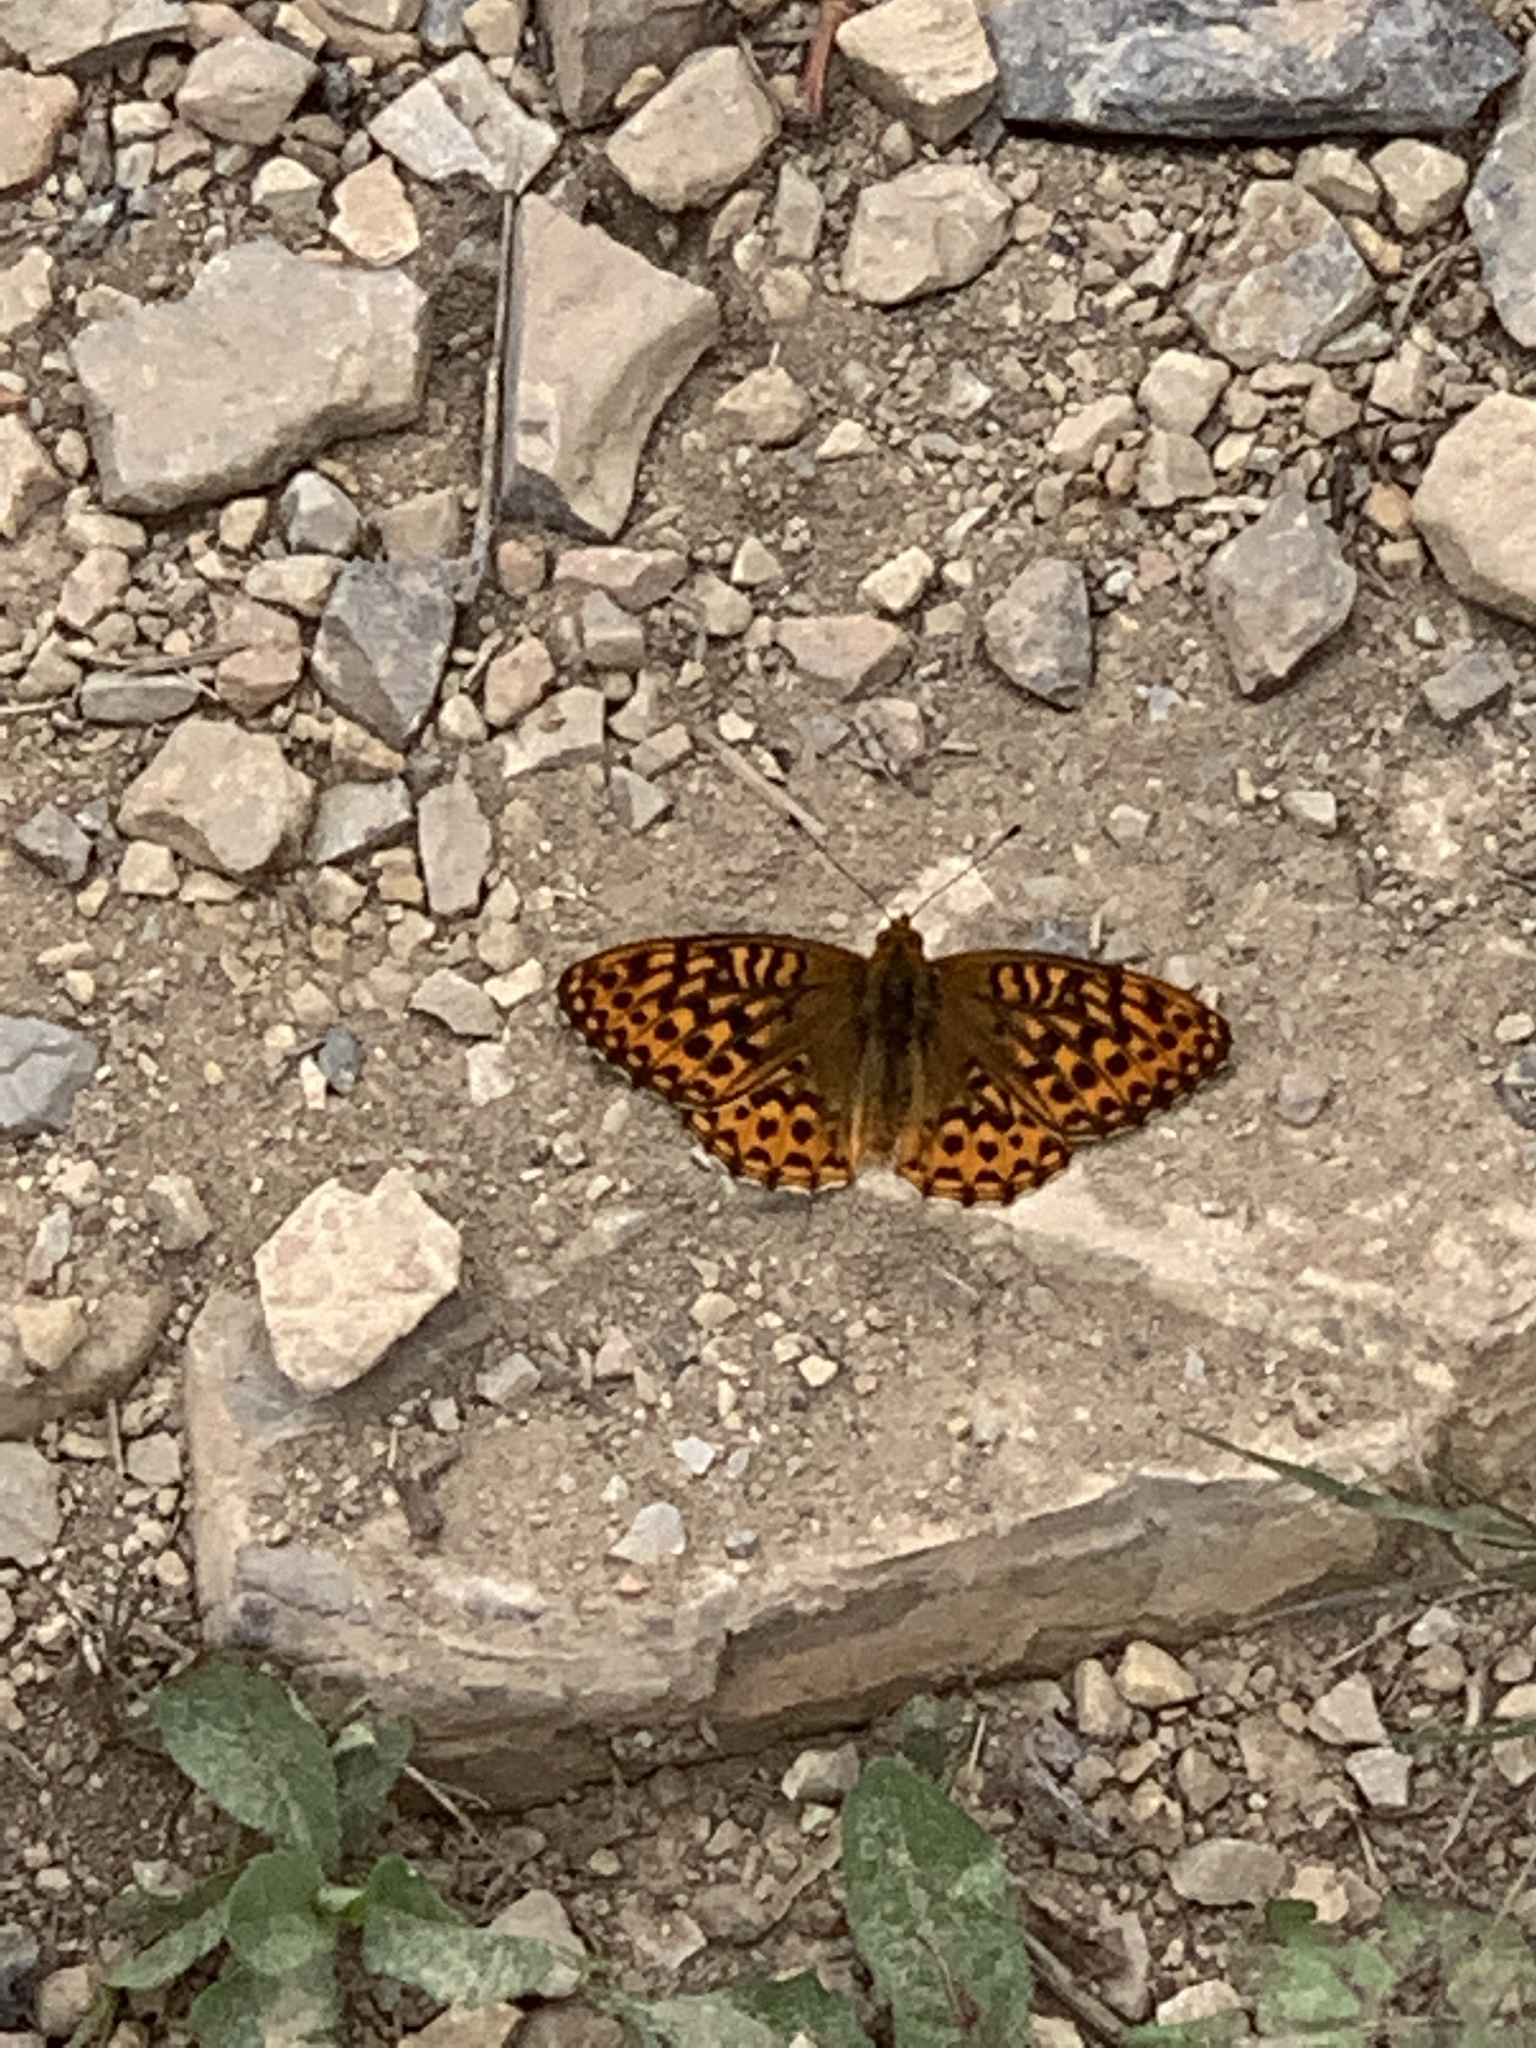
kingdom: Animalia
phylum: Arthropoda
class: Insecta
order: Lepidoptera
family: Nymphalidae
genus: Speyeria
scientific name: Speyeria hydaspe
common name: Hydaspe fritillary
